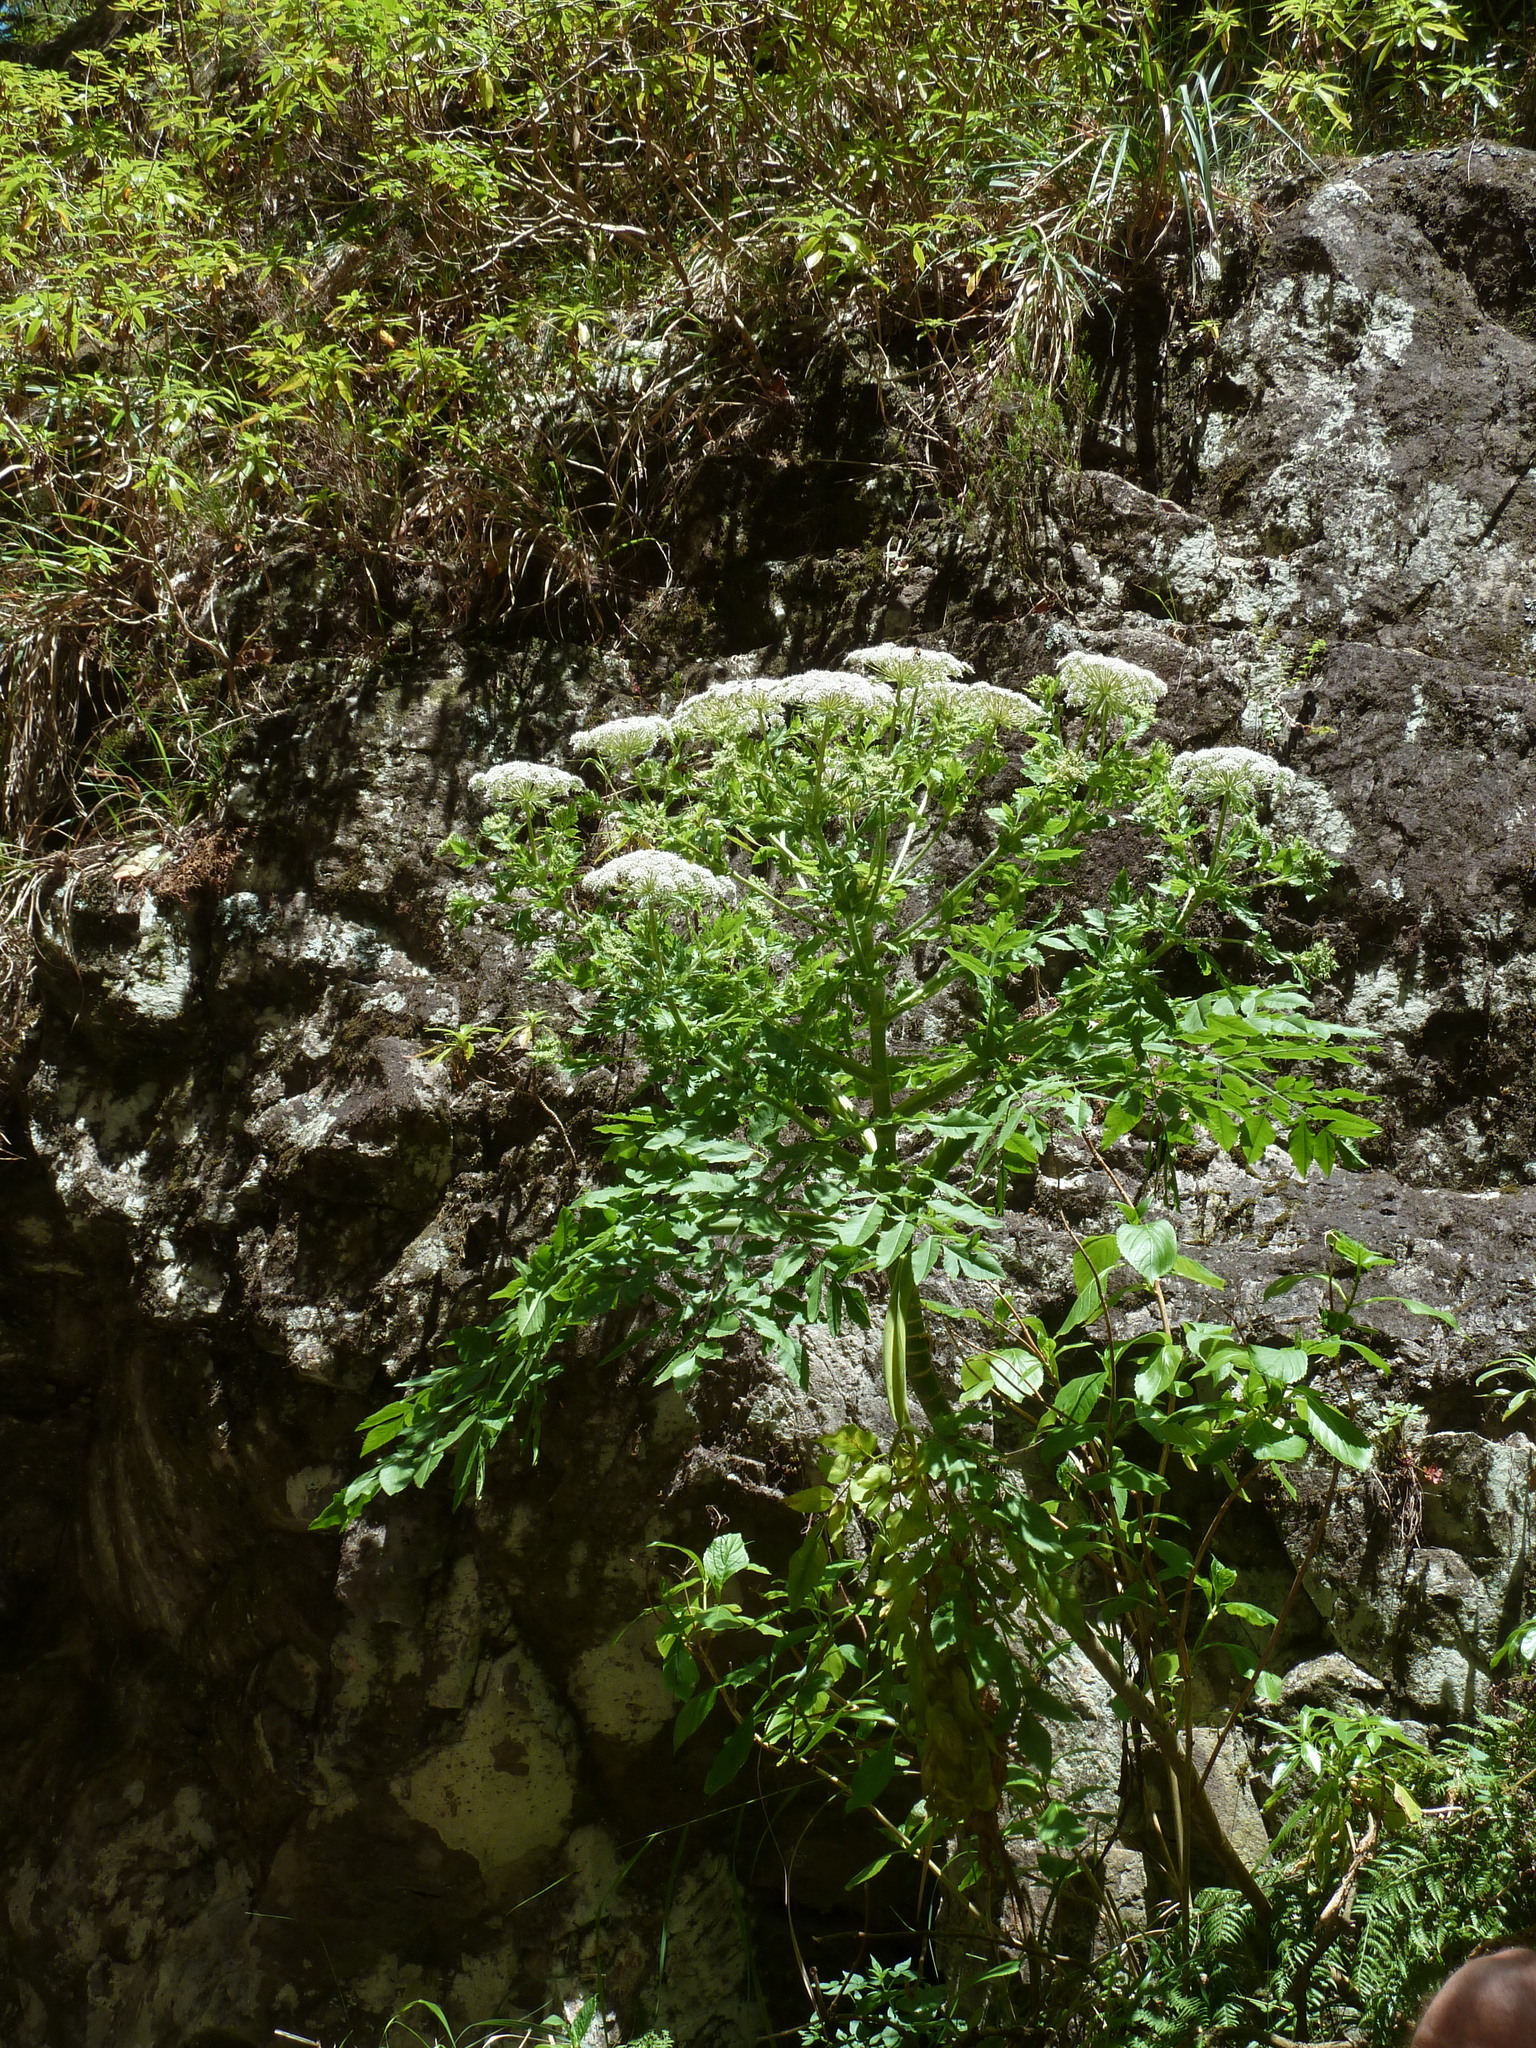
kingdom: Plantae
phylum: Tracheophyta
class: Magnoliopsida
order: Apiales
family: Apiaceae
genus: Daucus
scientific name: Daucus decipiens
